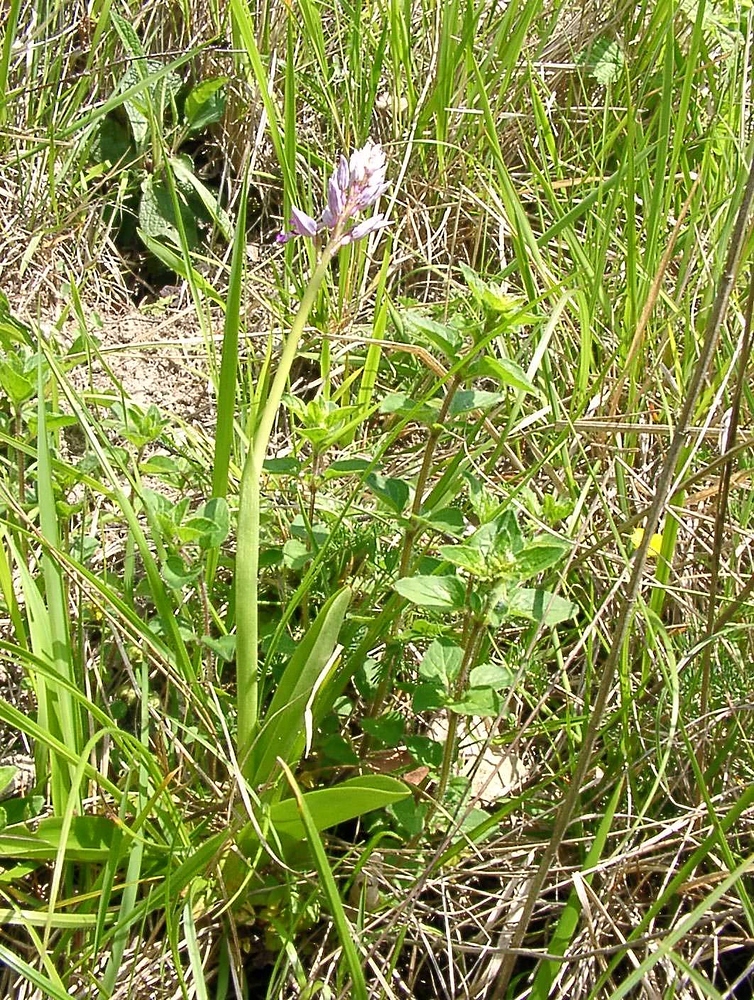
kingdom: Plantae
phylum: Tracheophyta
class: Liliopsida
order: Asparagales
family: Orchidaceae
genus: Orchis
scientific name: Orchis militaris
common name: Military orchid
